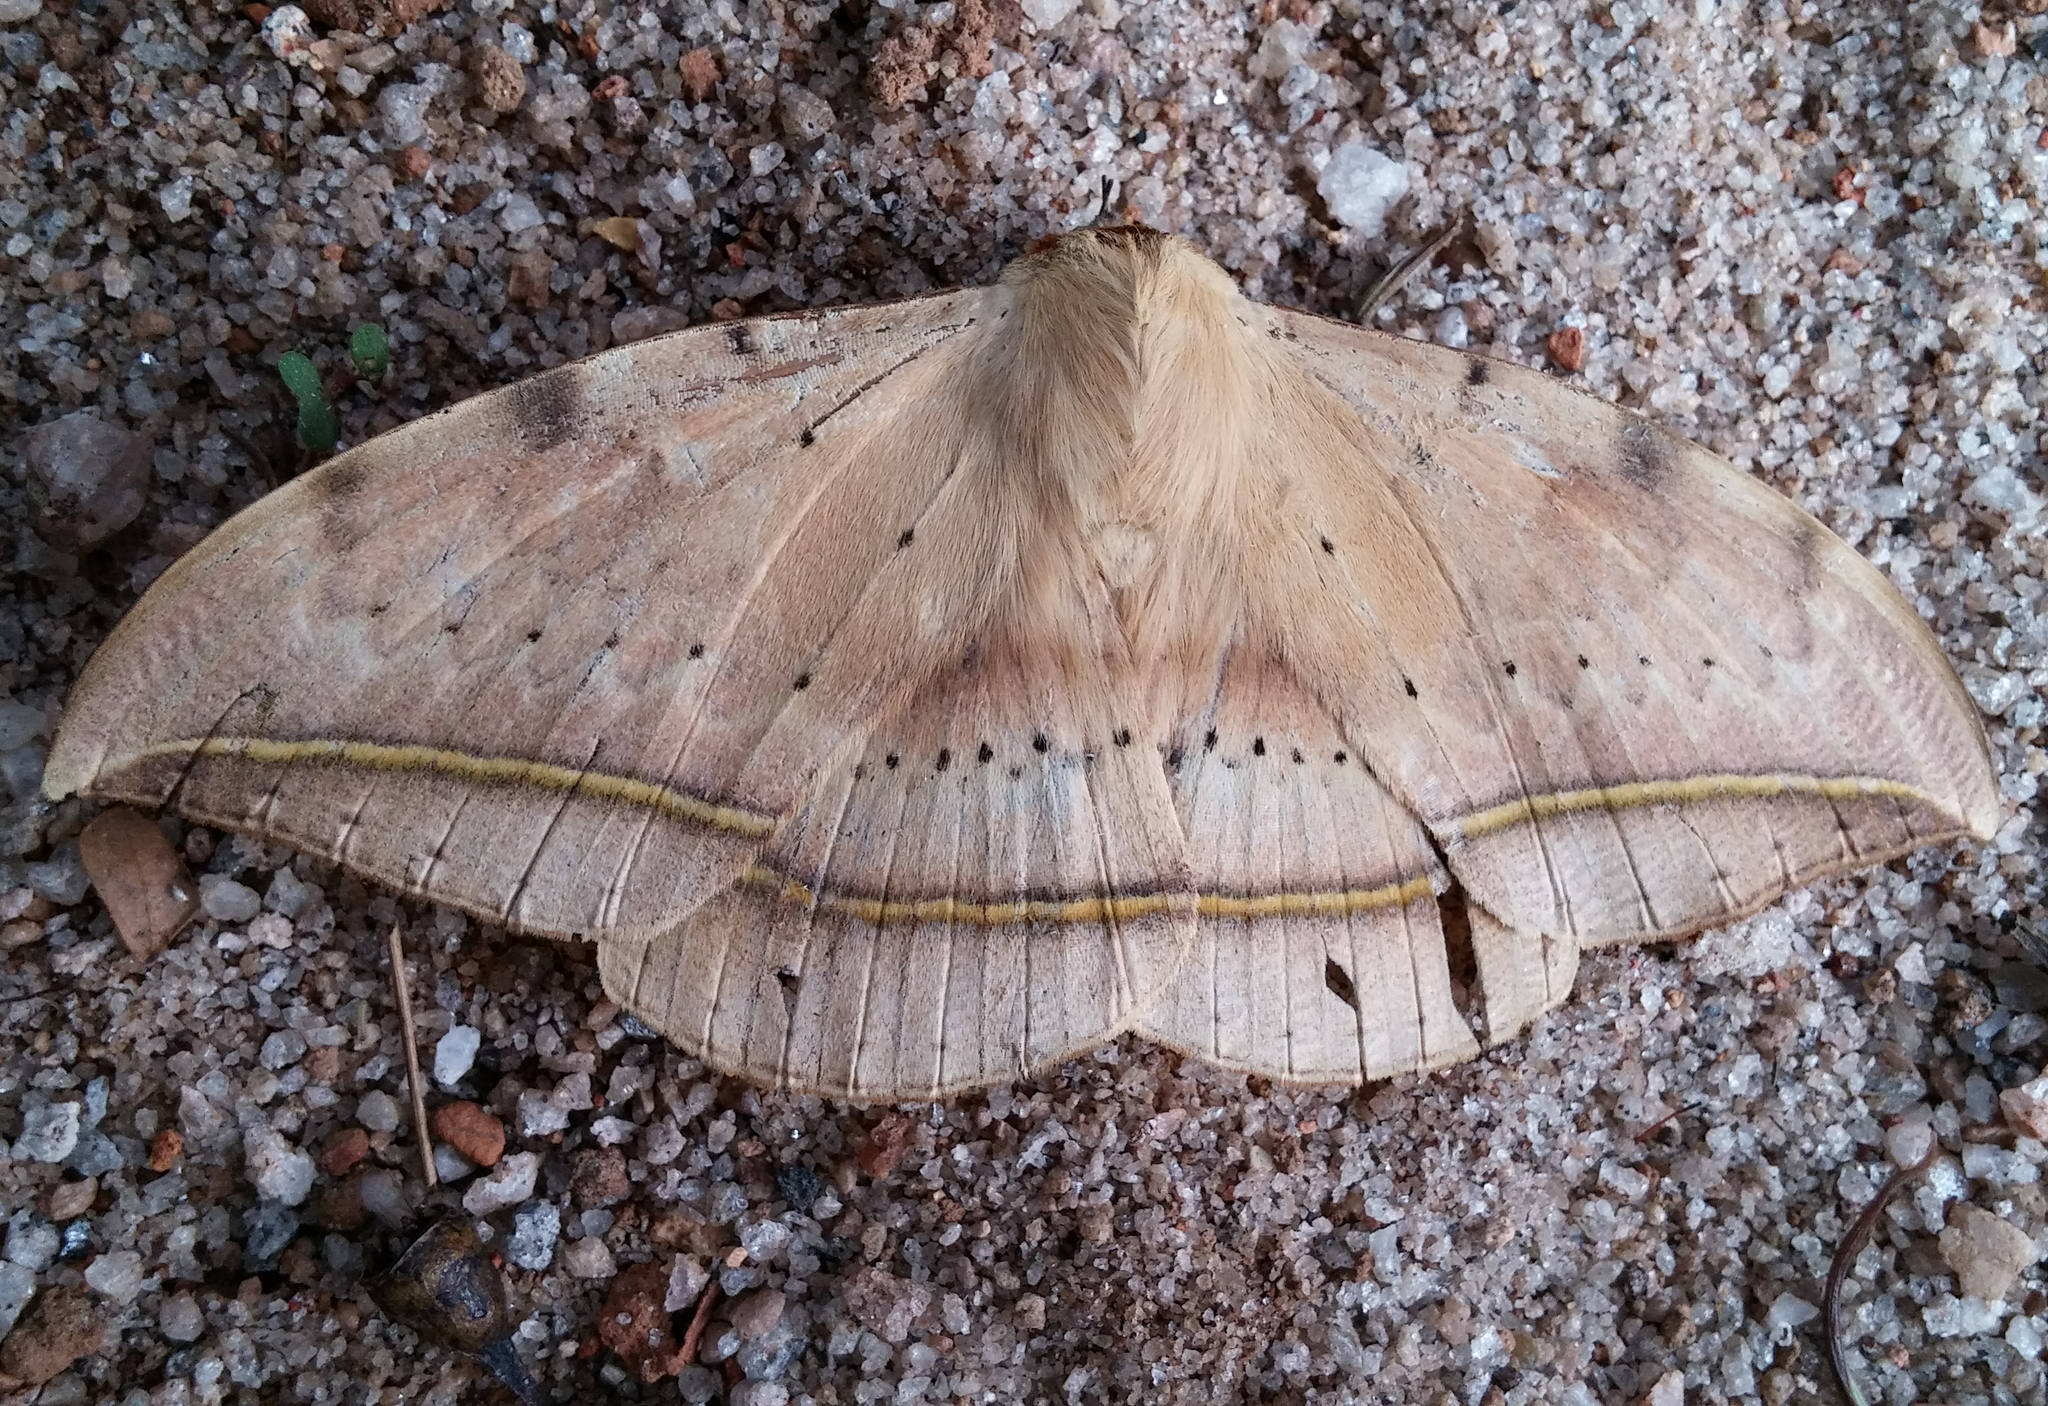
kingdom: Animalia
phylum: Arthropoda
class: Insecta
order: Lepidoptera
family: Erebidae
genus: Hypopyra
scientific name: Hypopyra megalesia
